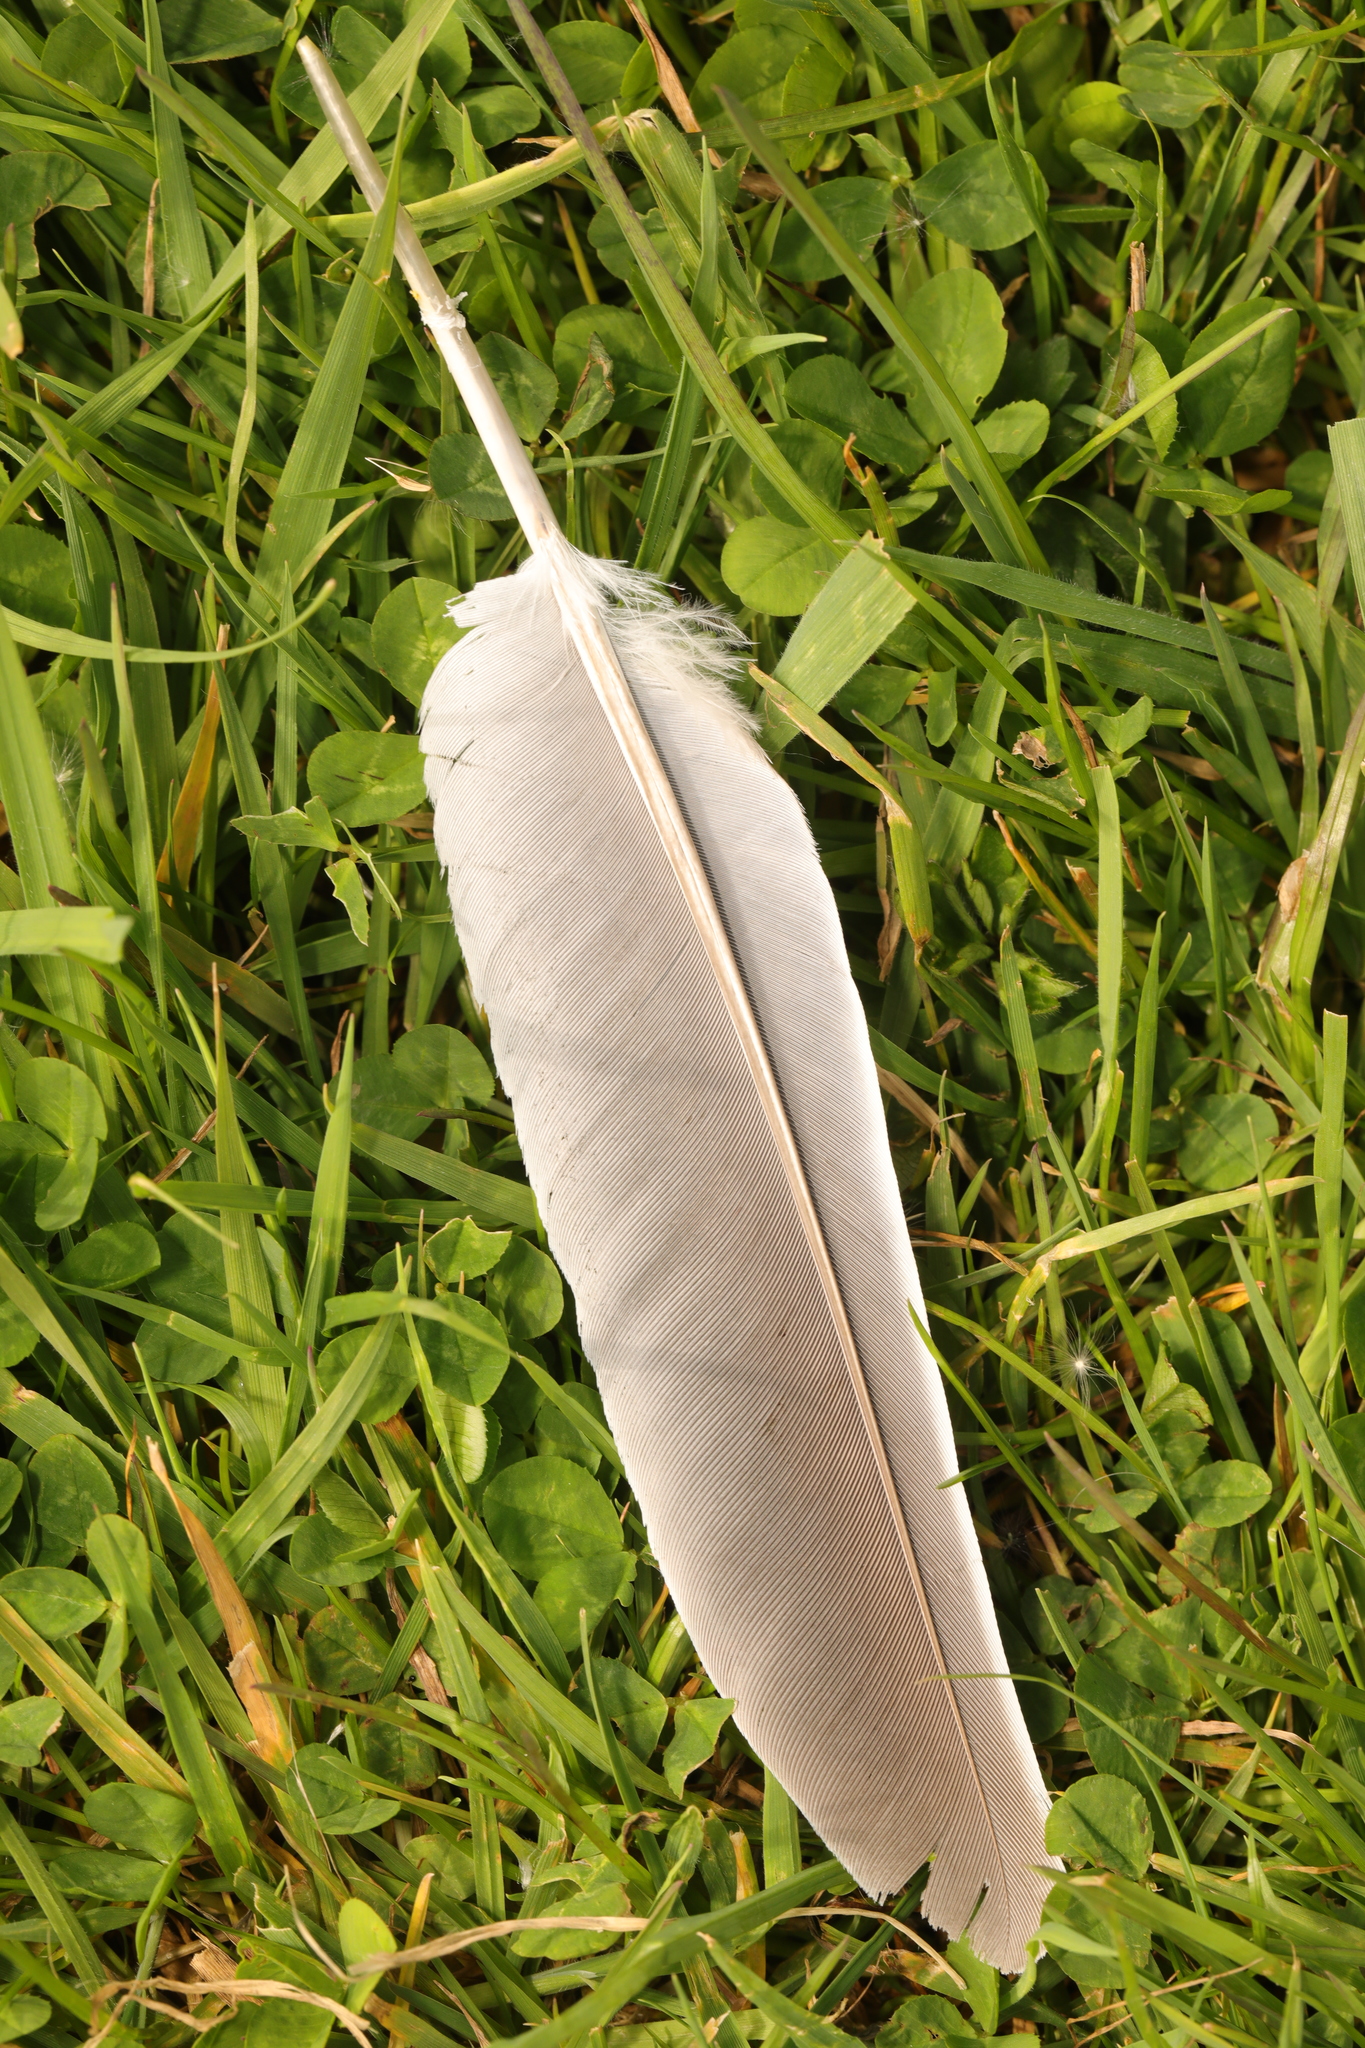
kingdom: Animalia
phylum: Chordata
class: Aves
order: Columbiformes
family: Columbidae
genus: Columba
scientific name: Columba palumbus
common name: Common wood pigeon
